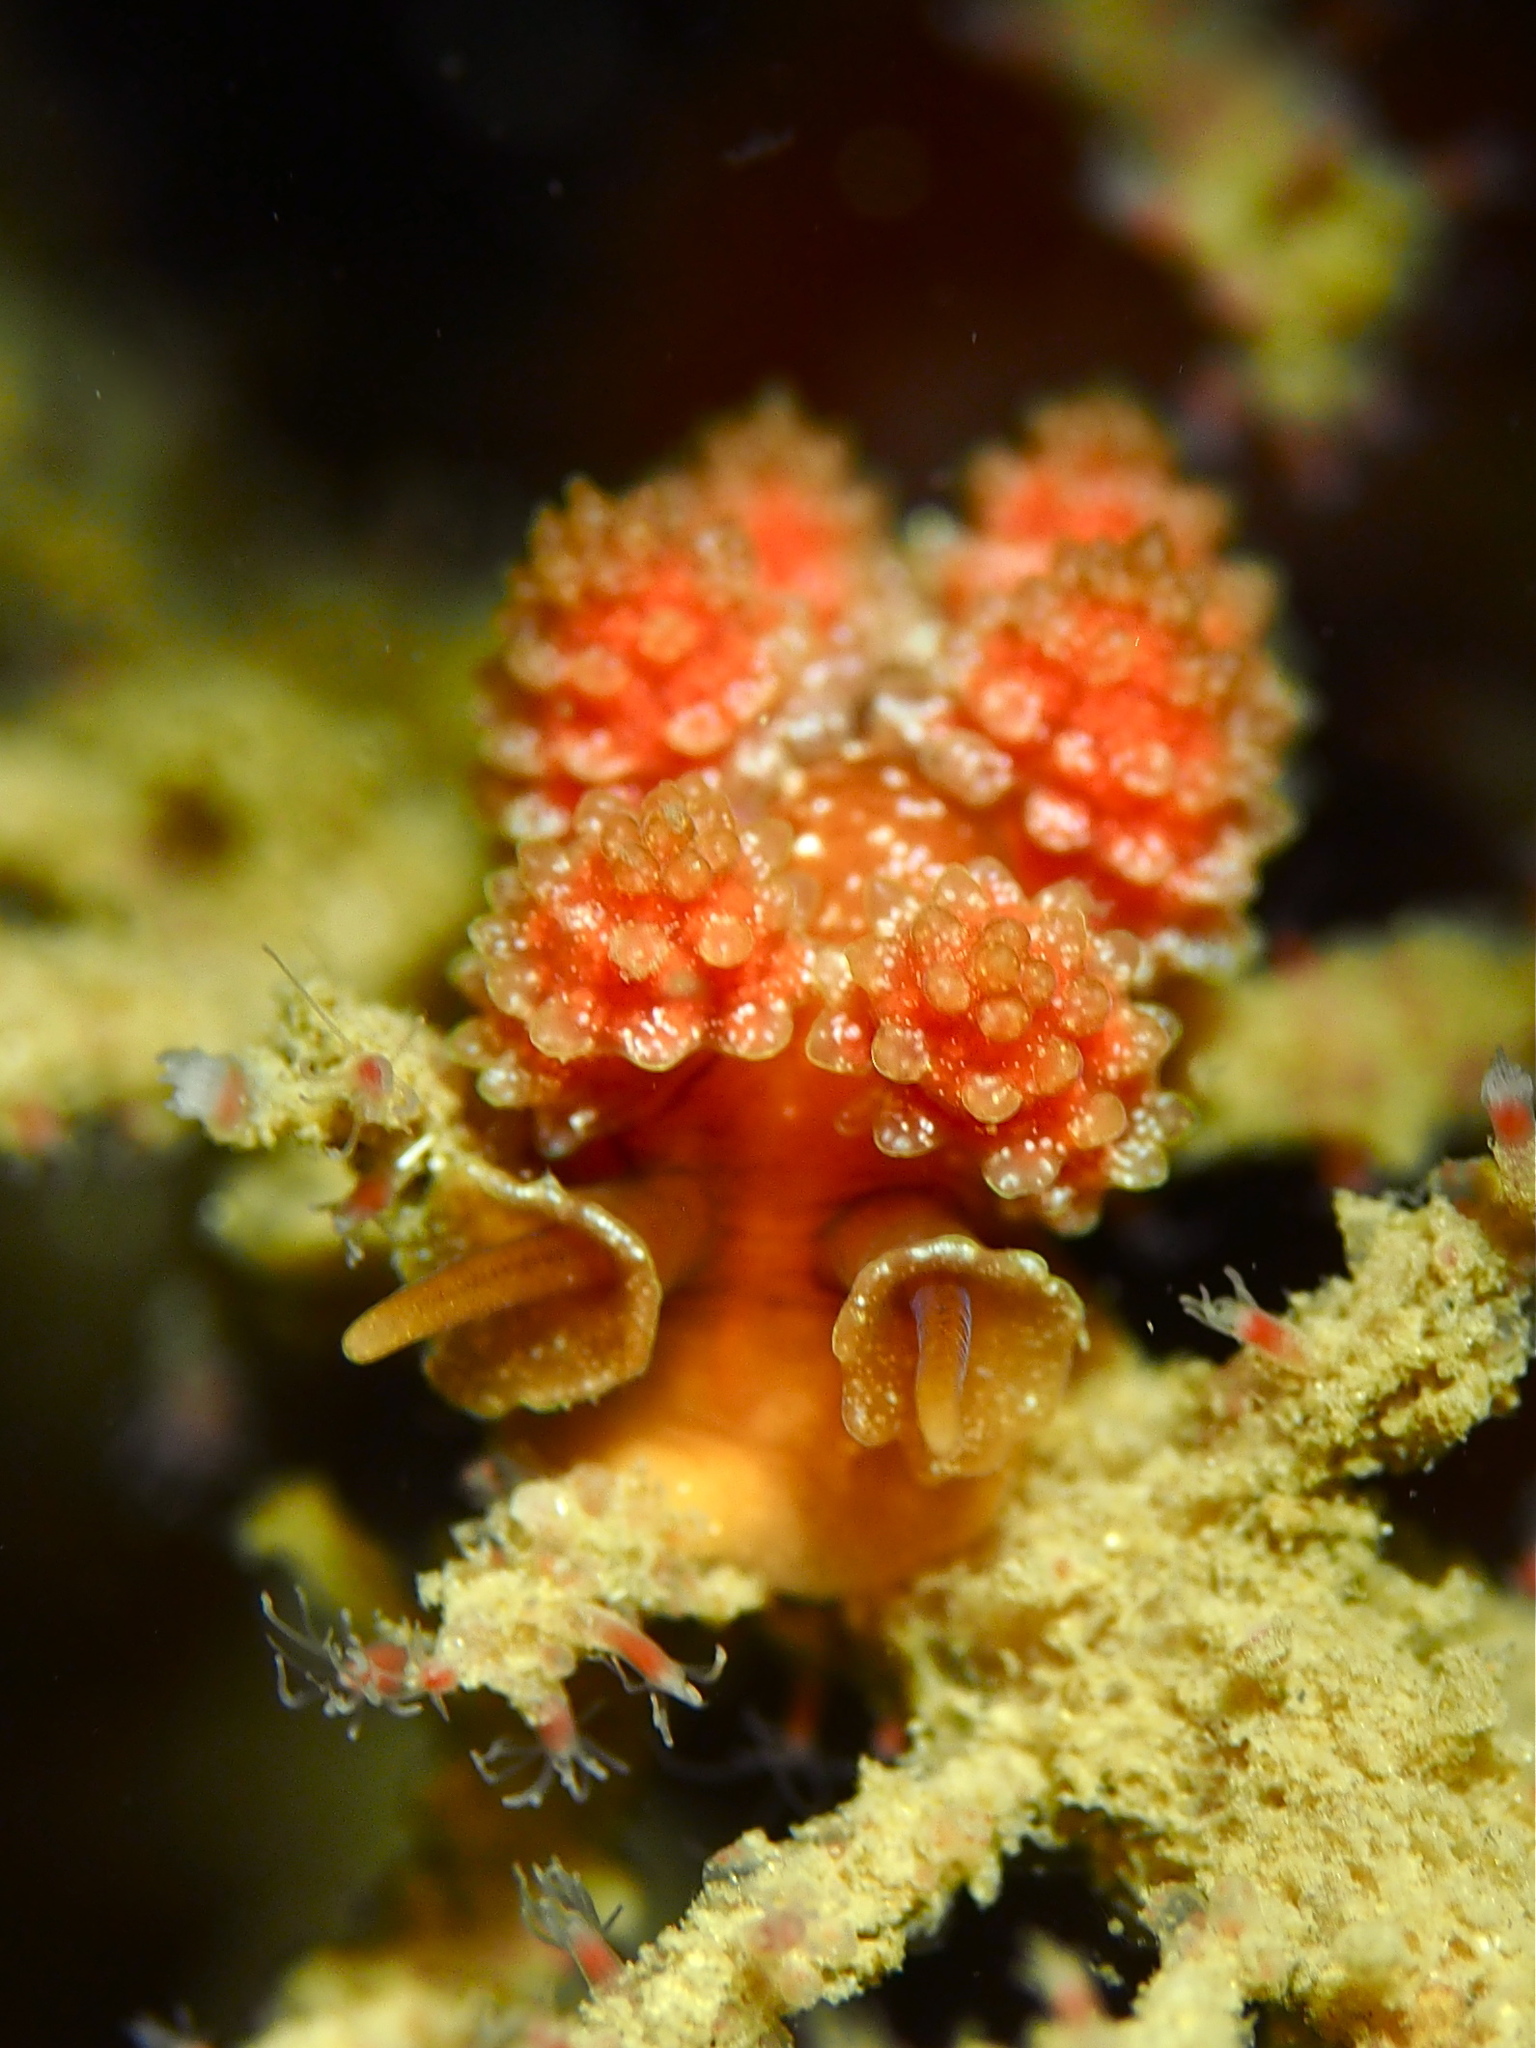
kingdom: Animalia
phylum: Mollusca
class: Gastropoda
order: Nudibranchia
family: Dotidae
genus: Doto
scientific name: Doto fragilis
